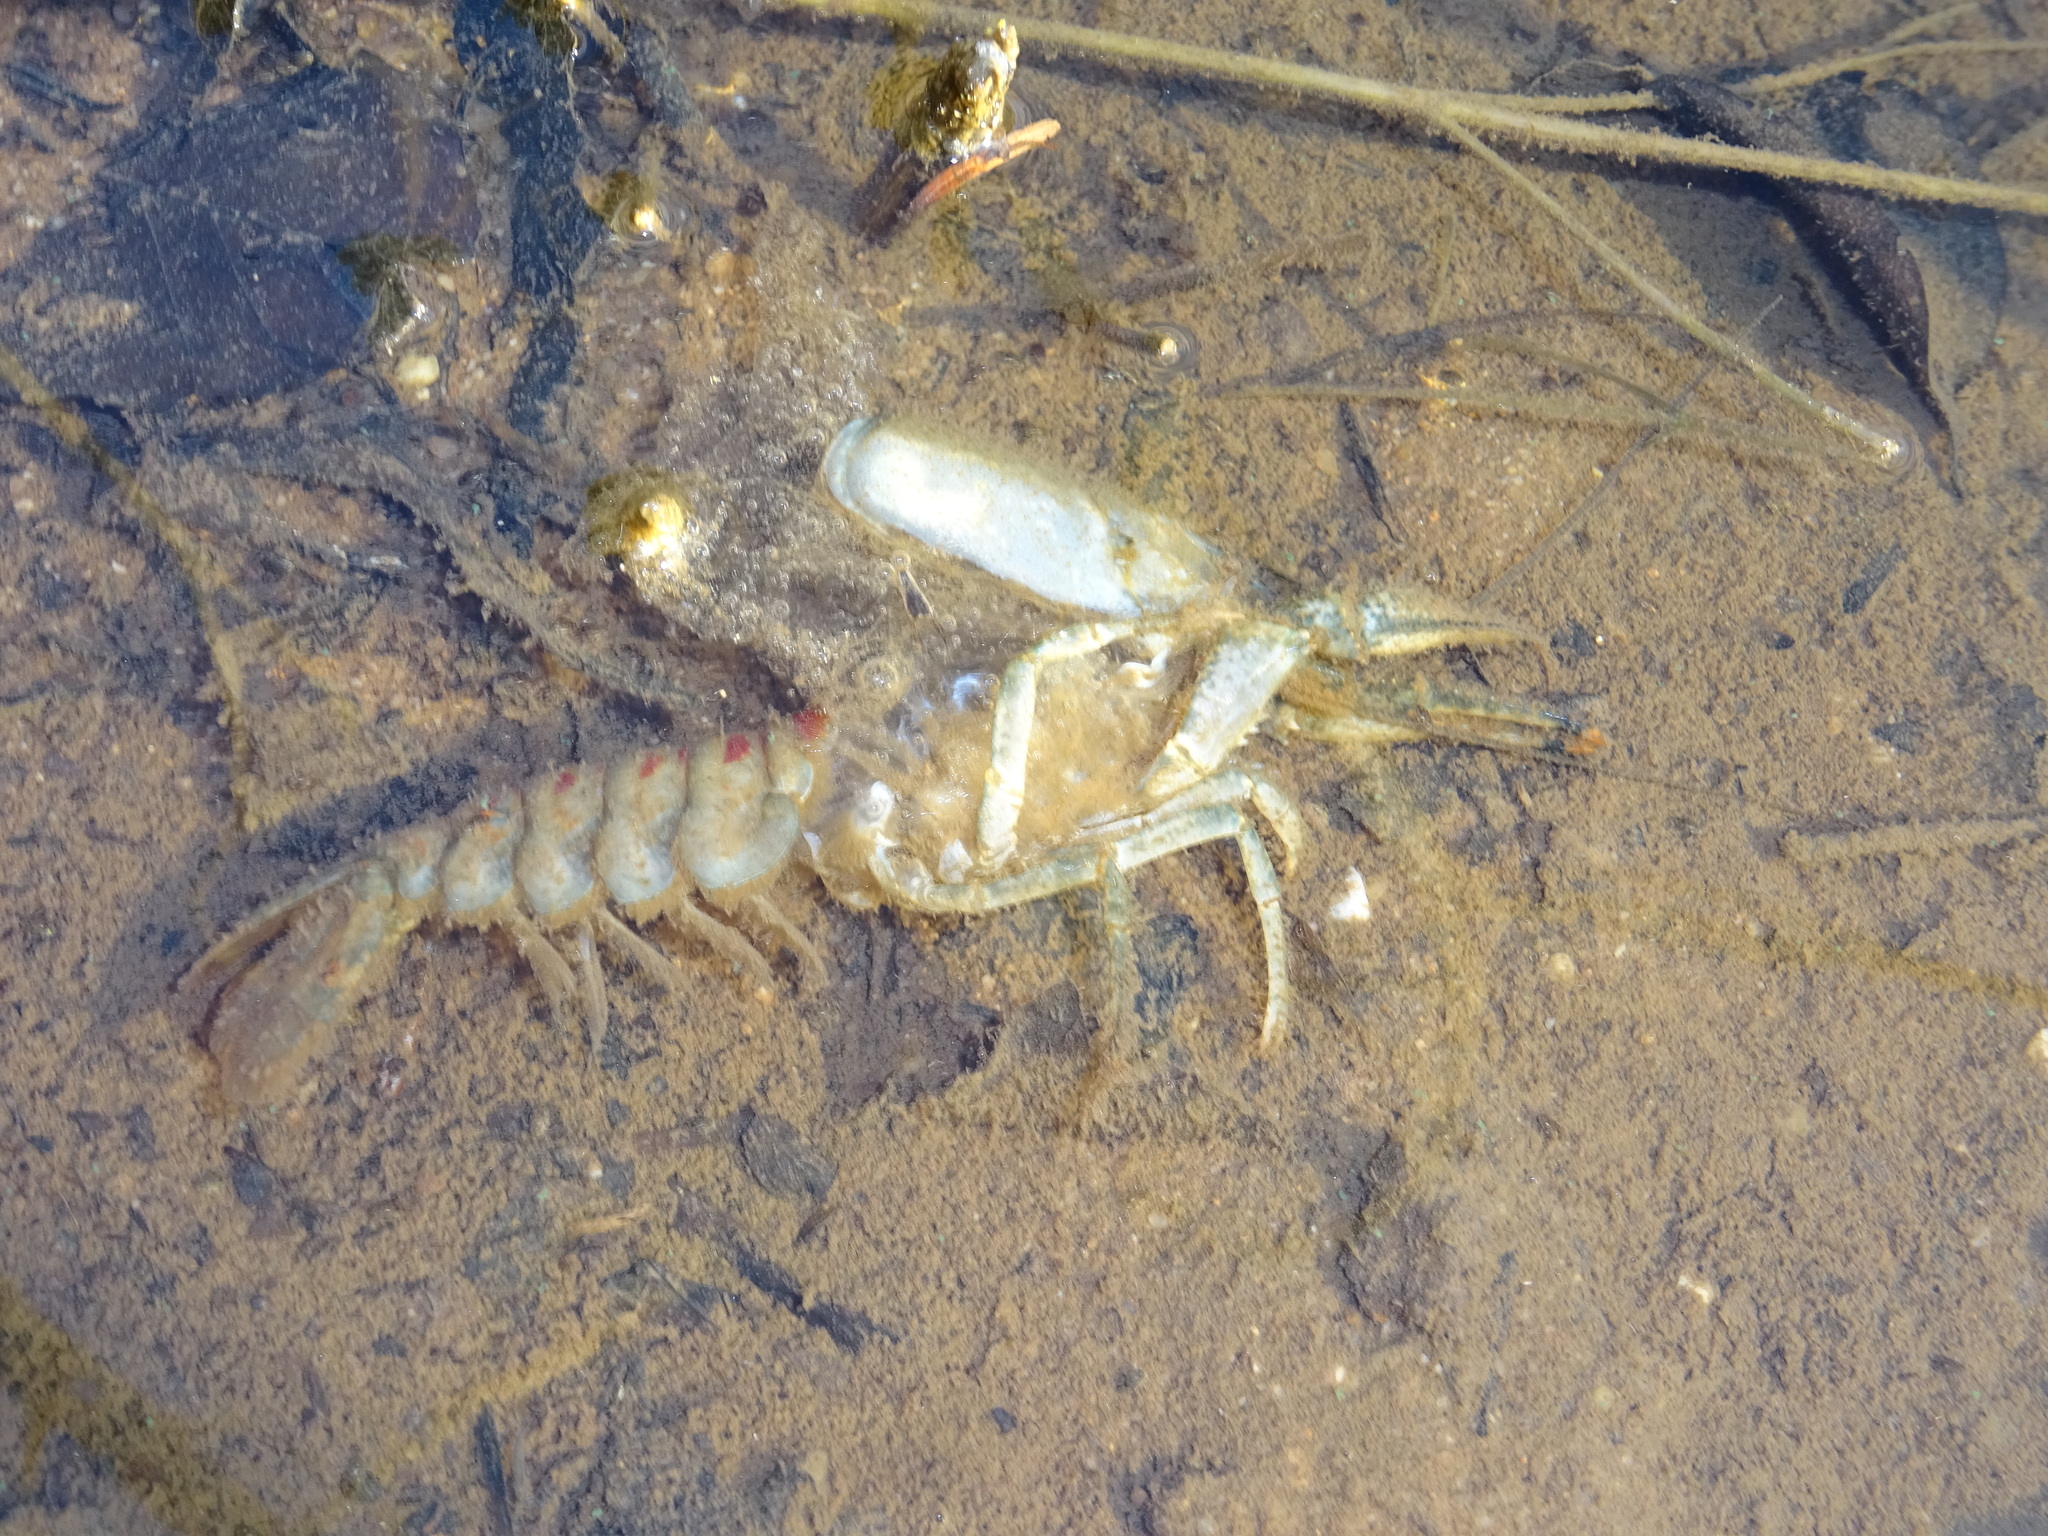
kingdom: Animalia
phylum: Arthropoda
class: Malacostraca
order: Decapoda
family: Cambaridae
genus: Faxonius
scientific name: Faxonius limosus
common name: American crayfish
